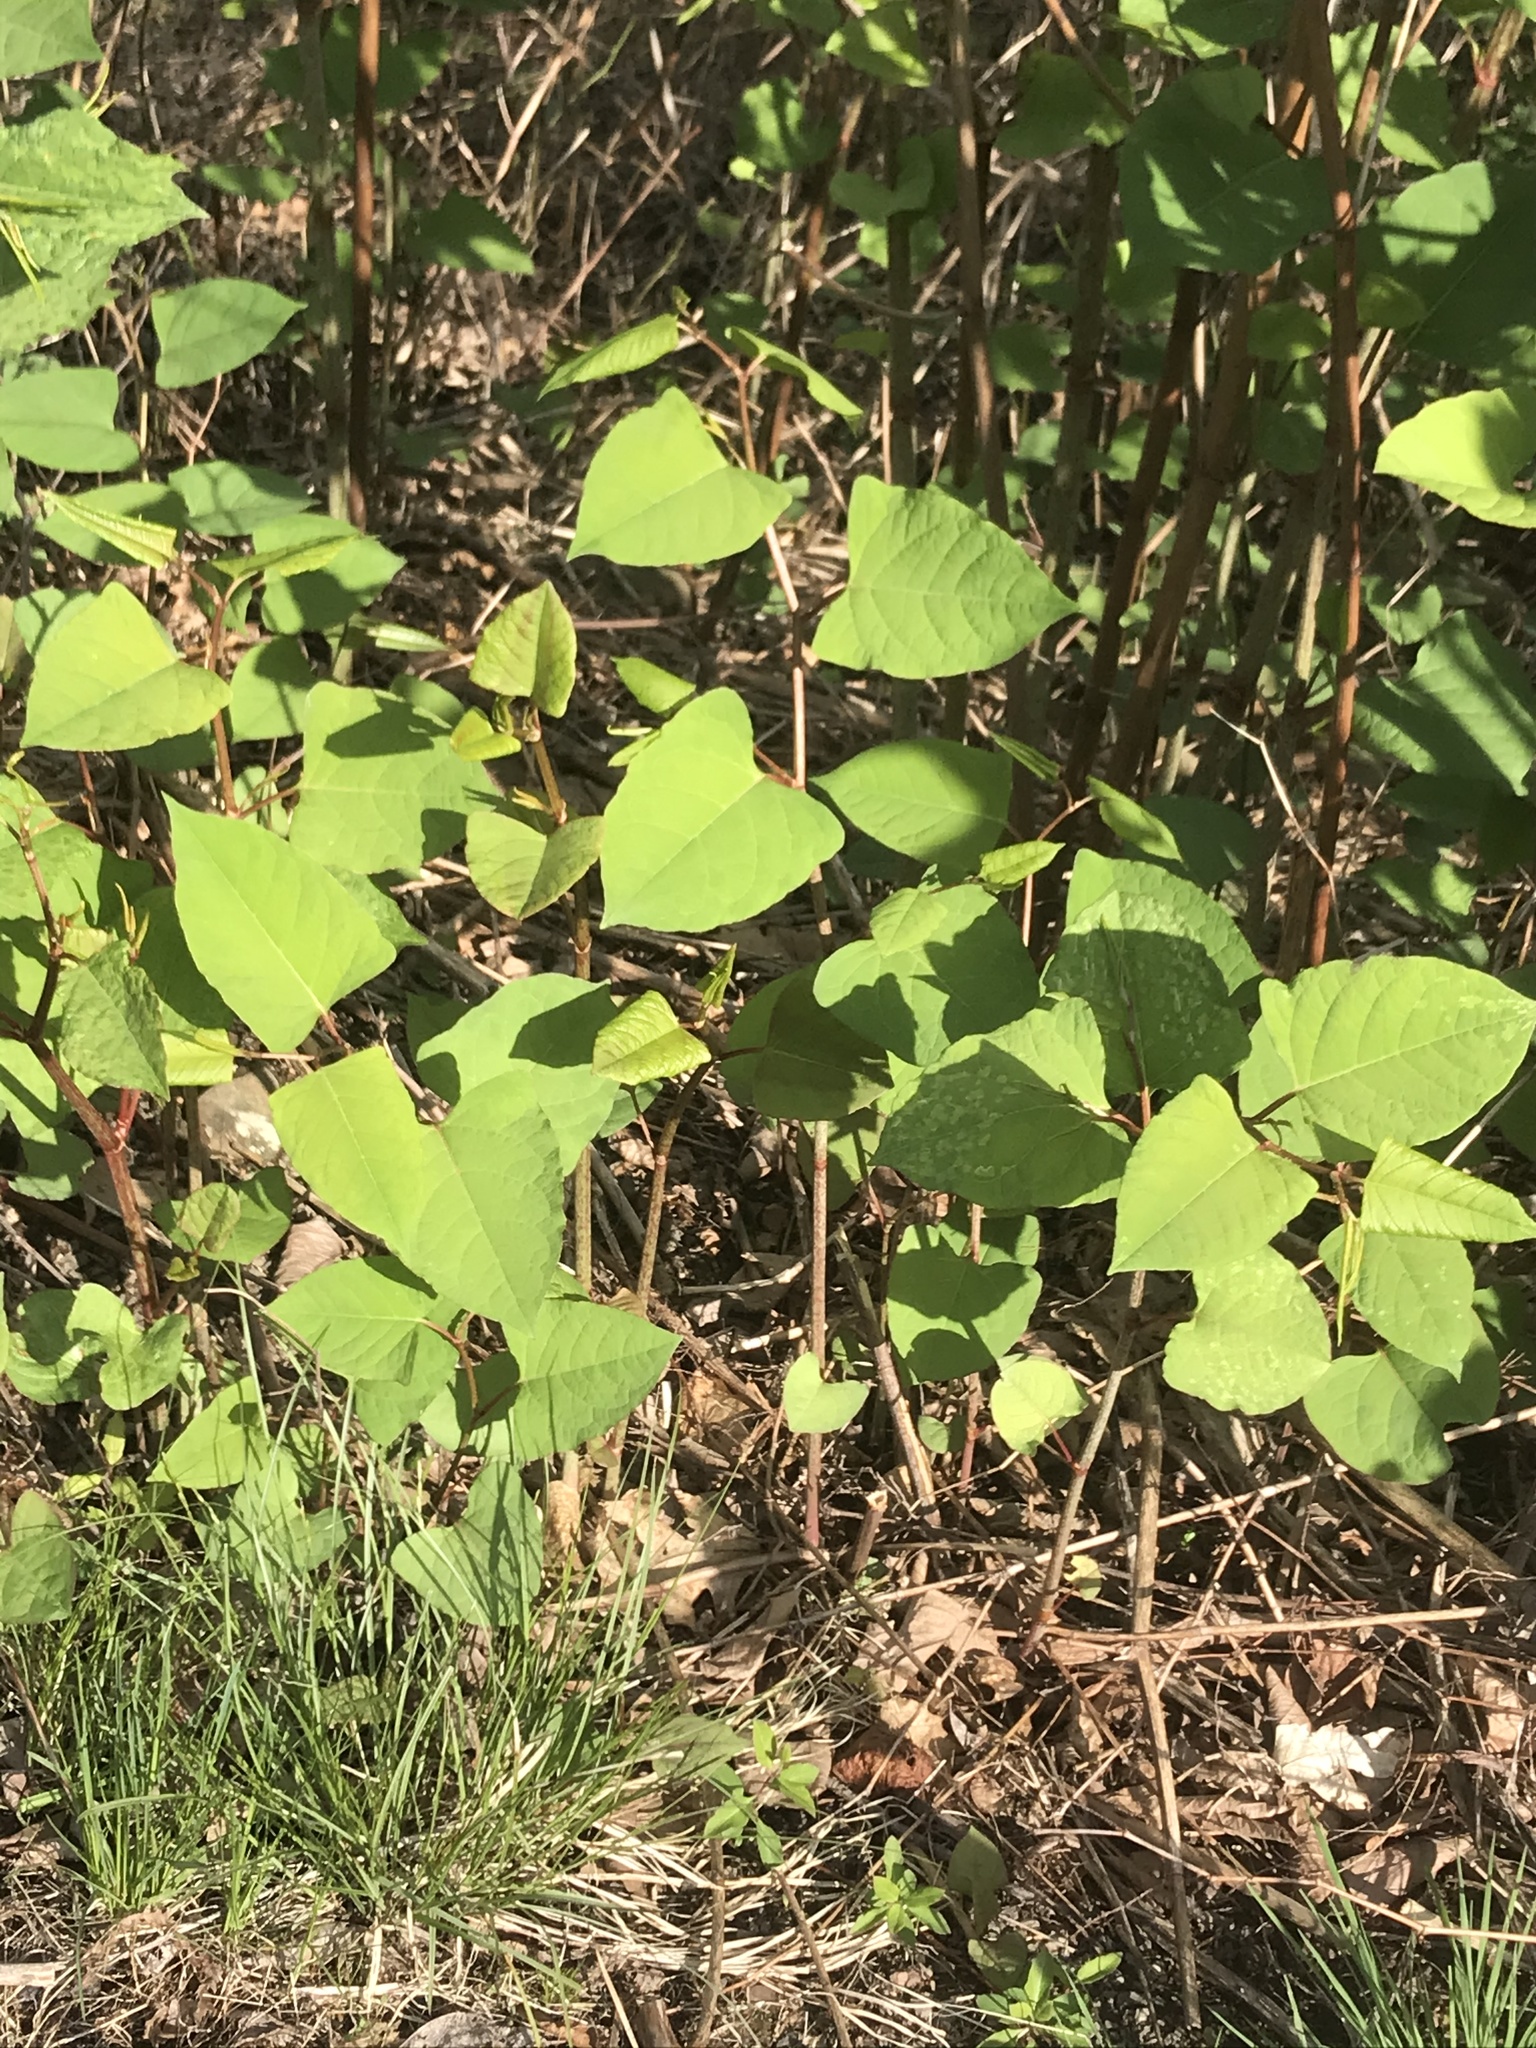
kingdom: Plantae
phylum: Tracheophyta
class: Magnoliopsida
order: Caryophyllales
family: Polygonaceae
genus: Reynoutria
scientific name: Reynoutria japonica
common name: Japanese knotweed
